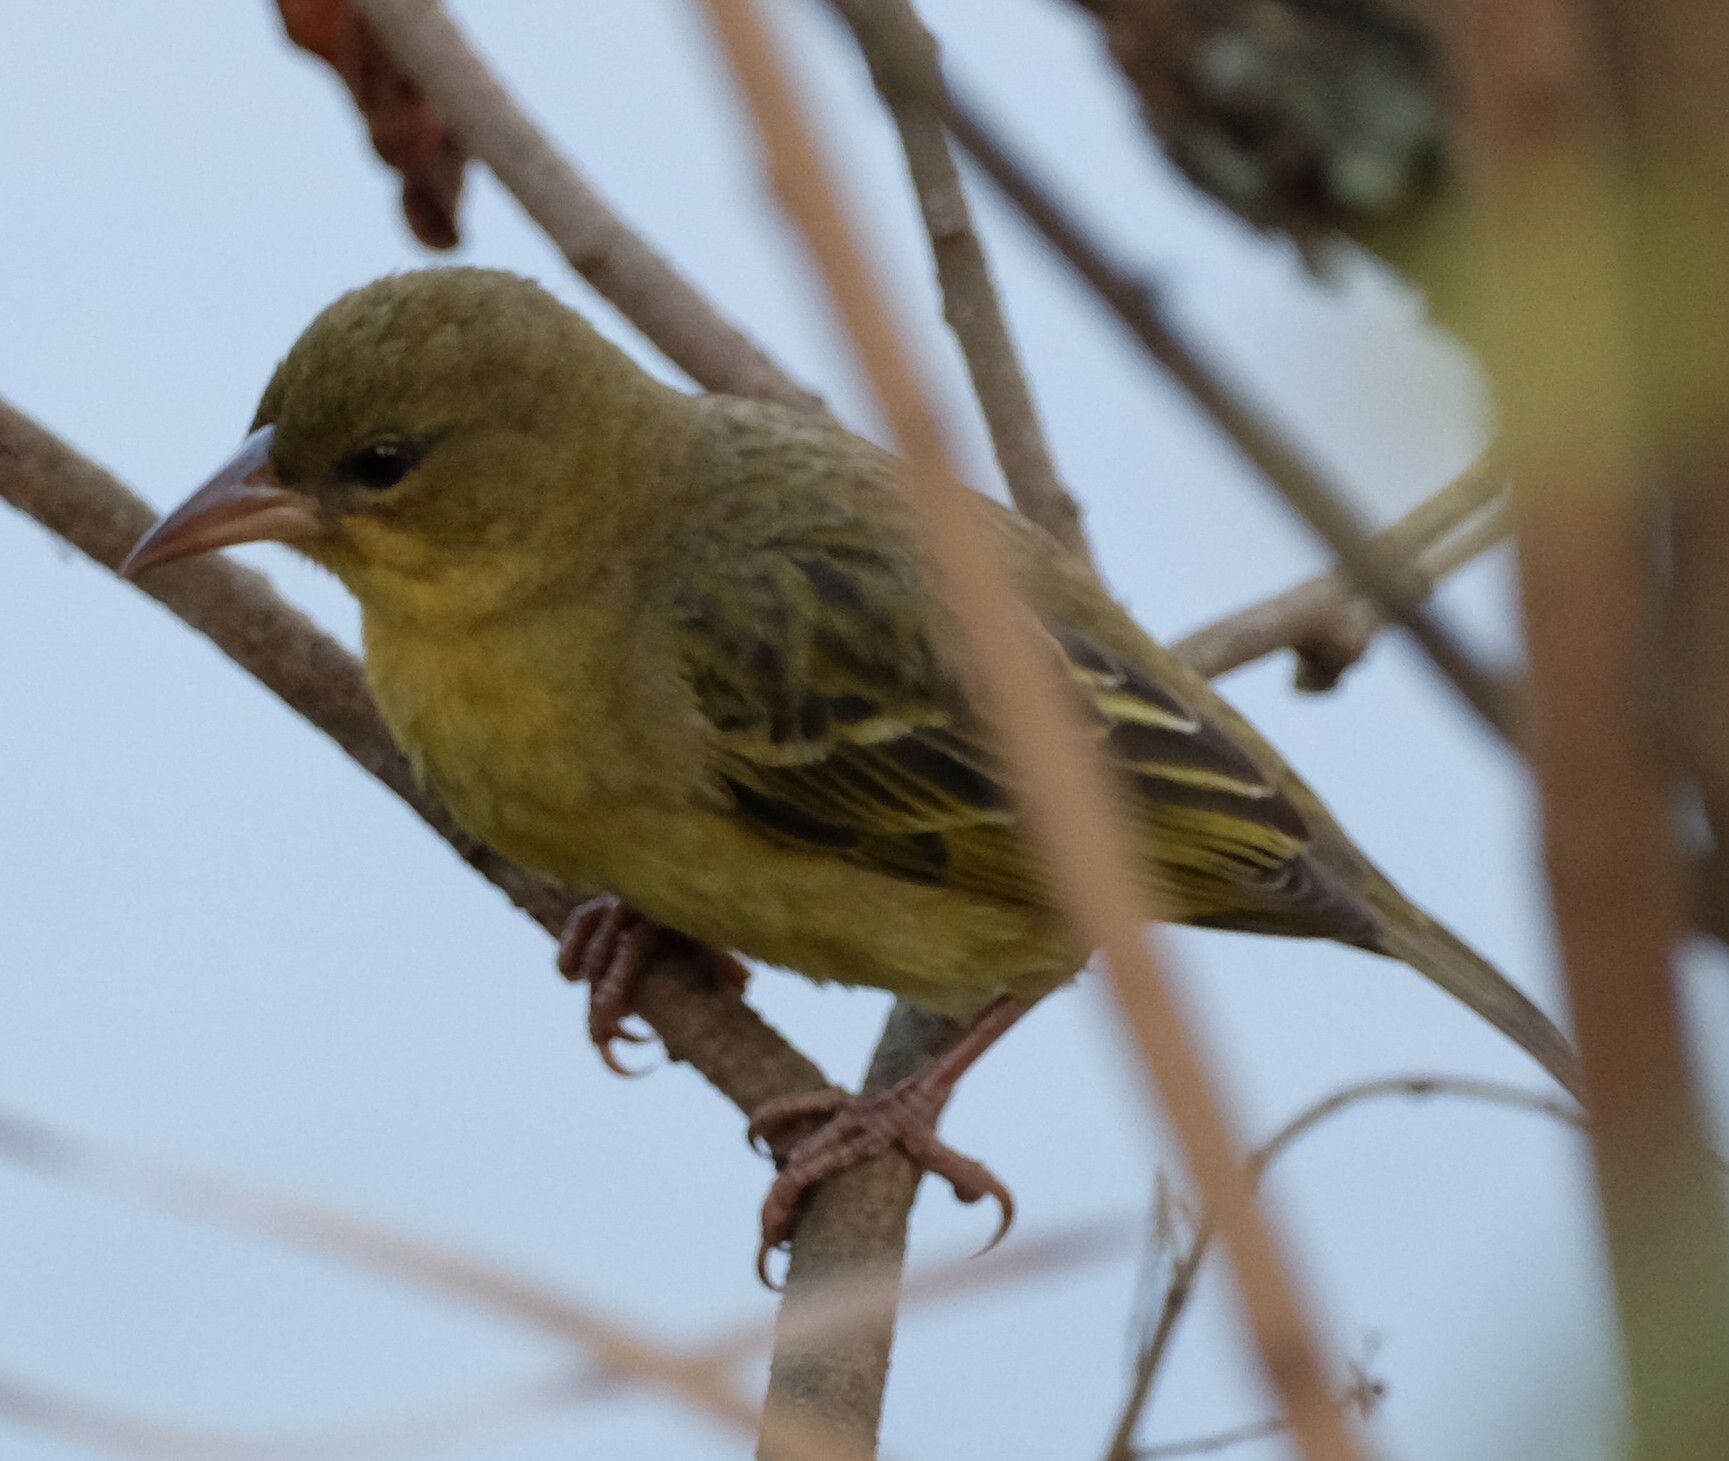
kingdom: Animalia
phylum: Chordata
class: Aves
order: Passeriformes
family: Ploceidae
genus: Ploceus
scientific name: Ploceus capensis
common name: Cape weaver
